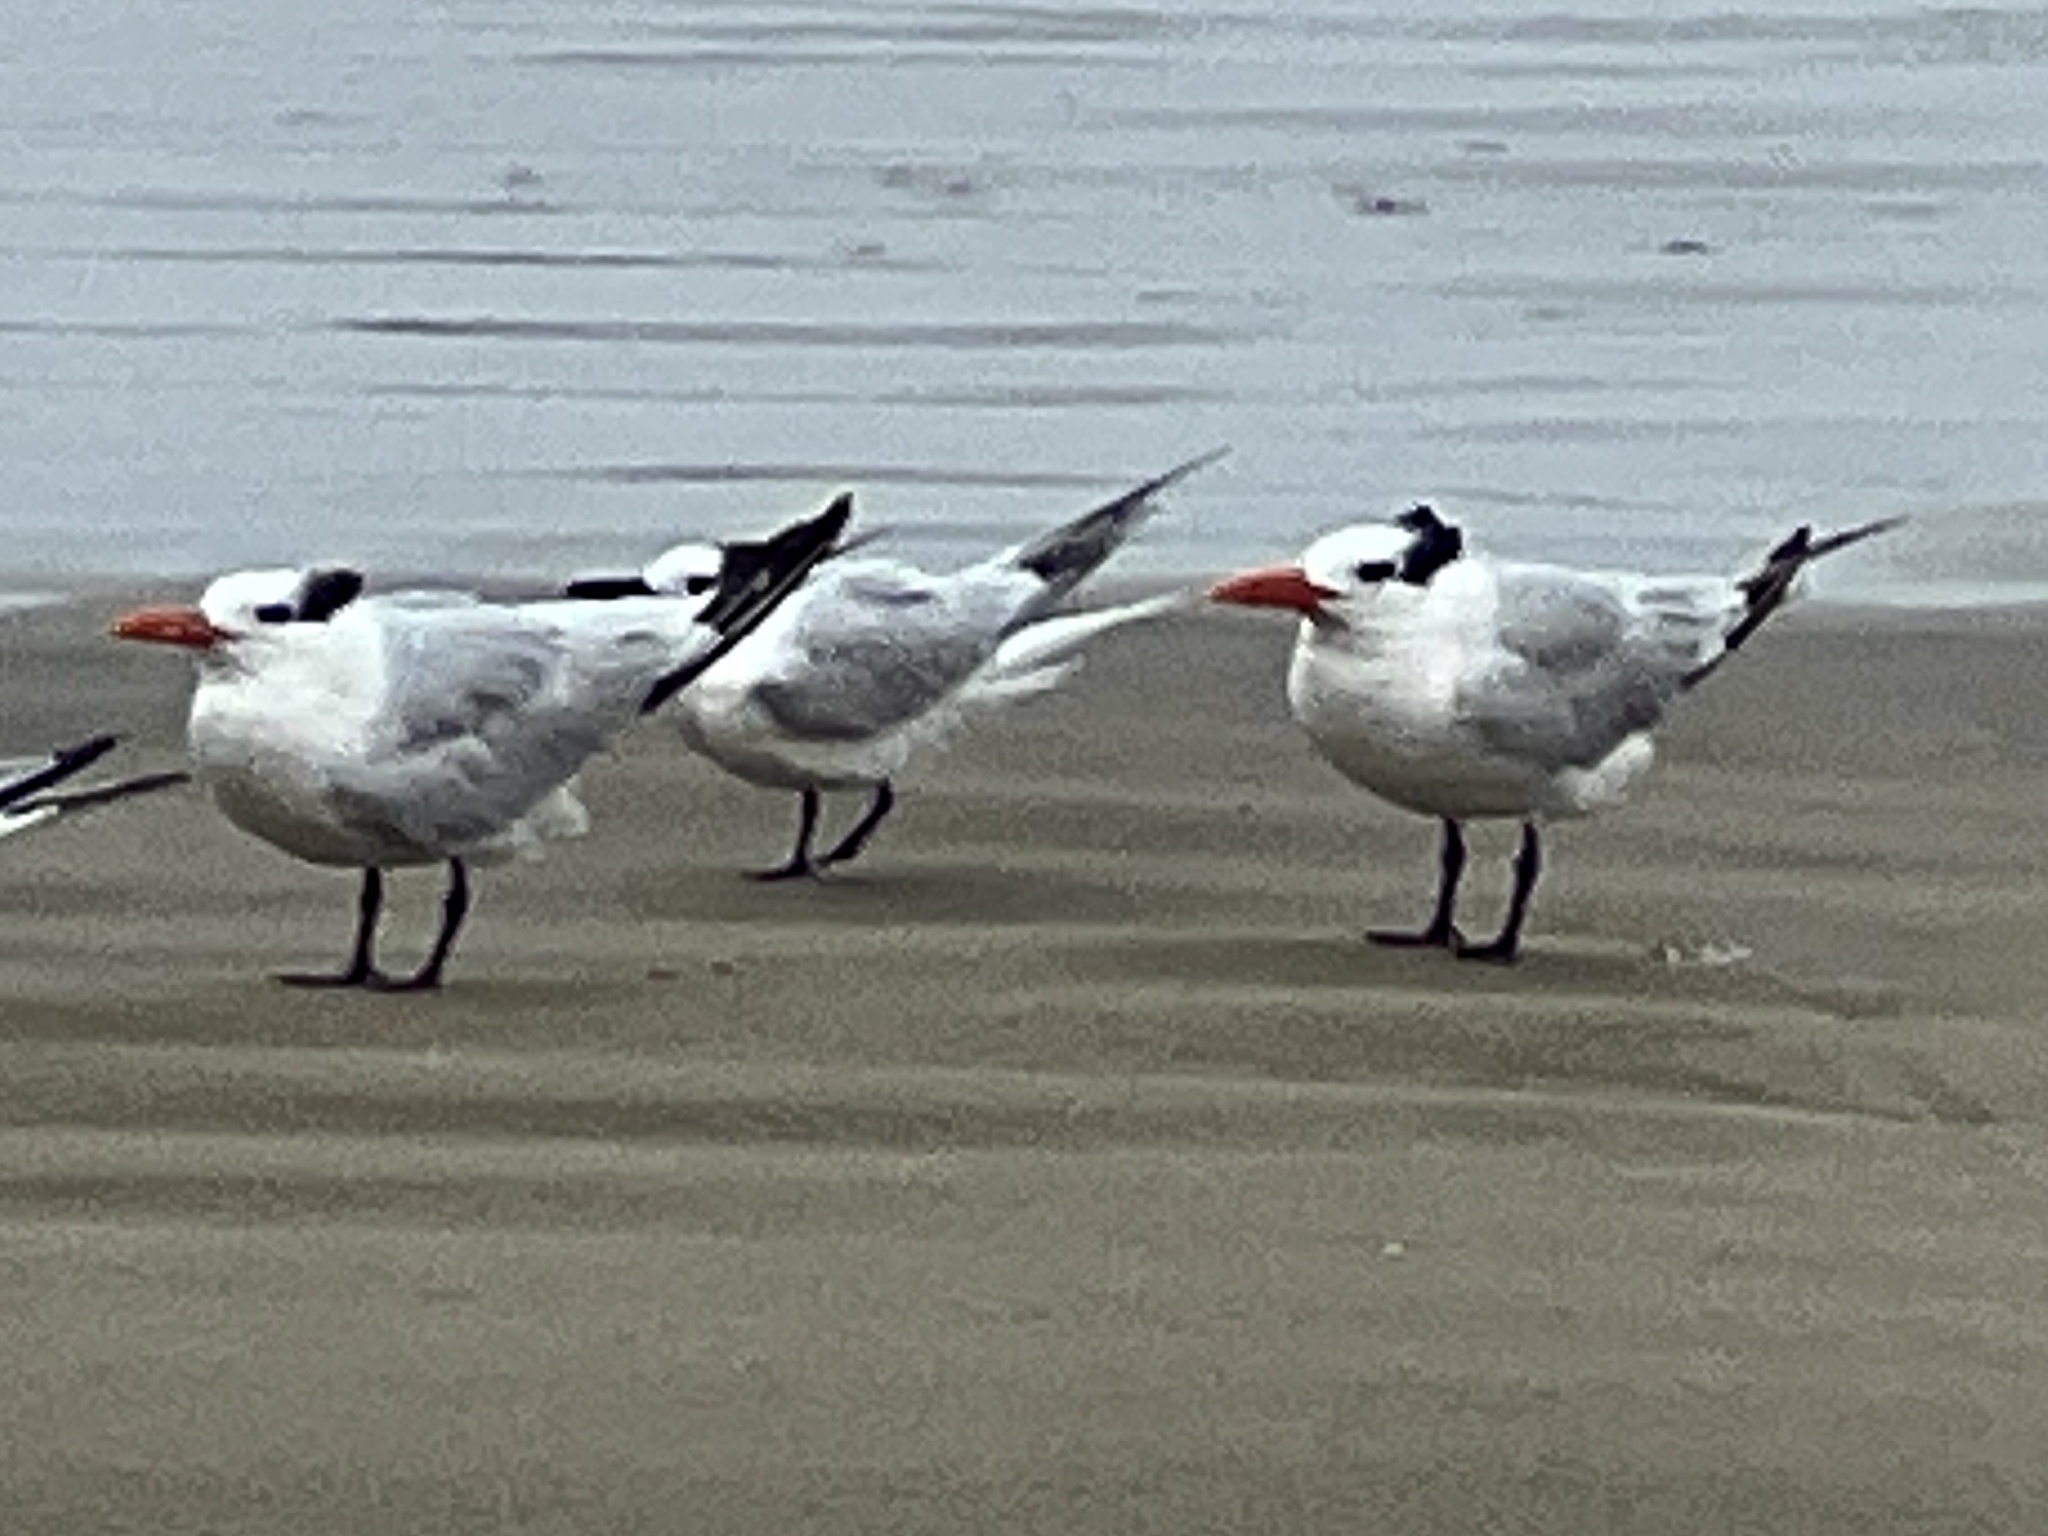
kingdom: Animalia
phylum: Chordata
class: Aves
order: Charadriiformes
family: Laridae
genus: Thalasseus
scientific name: Thalasseus maximus
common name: Royal tern
